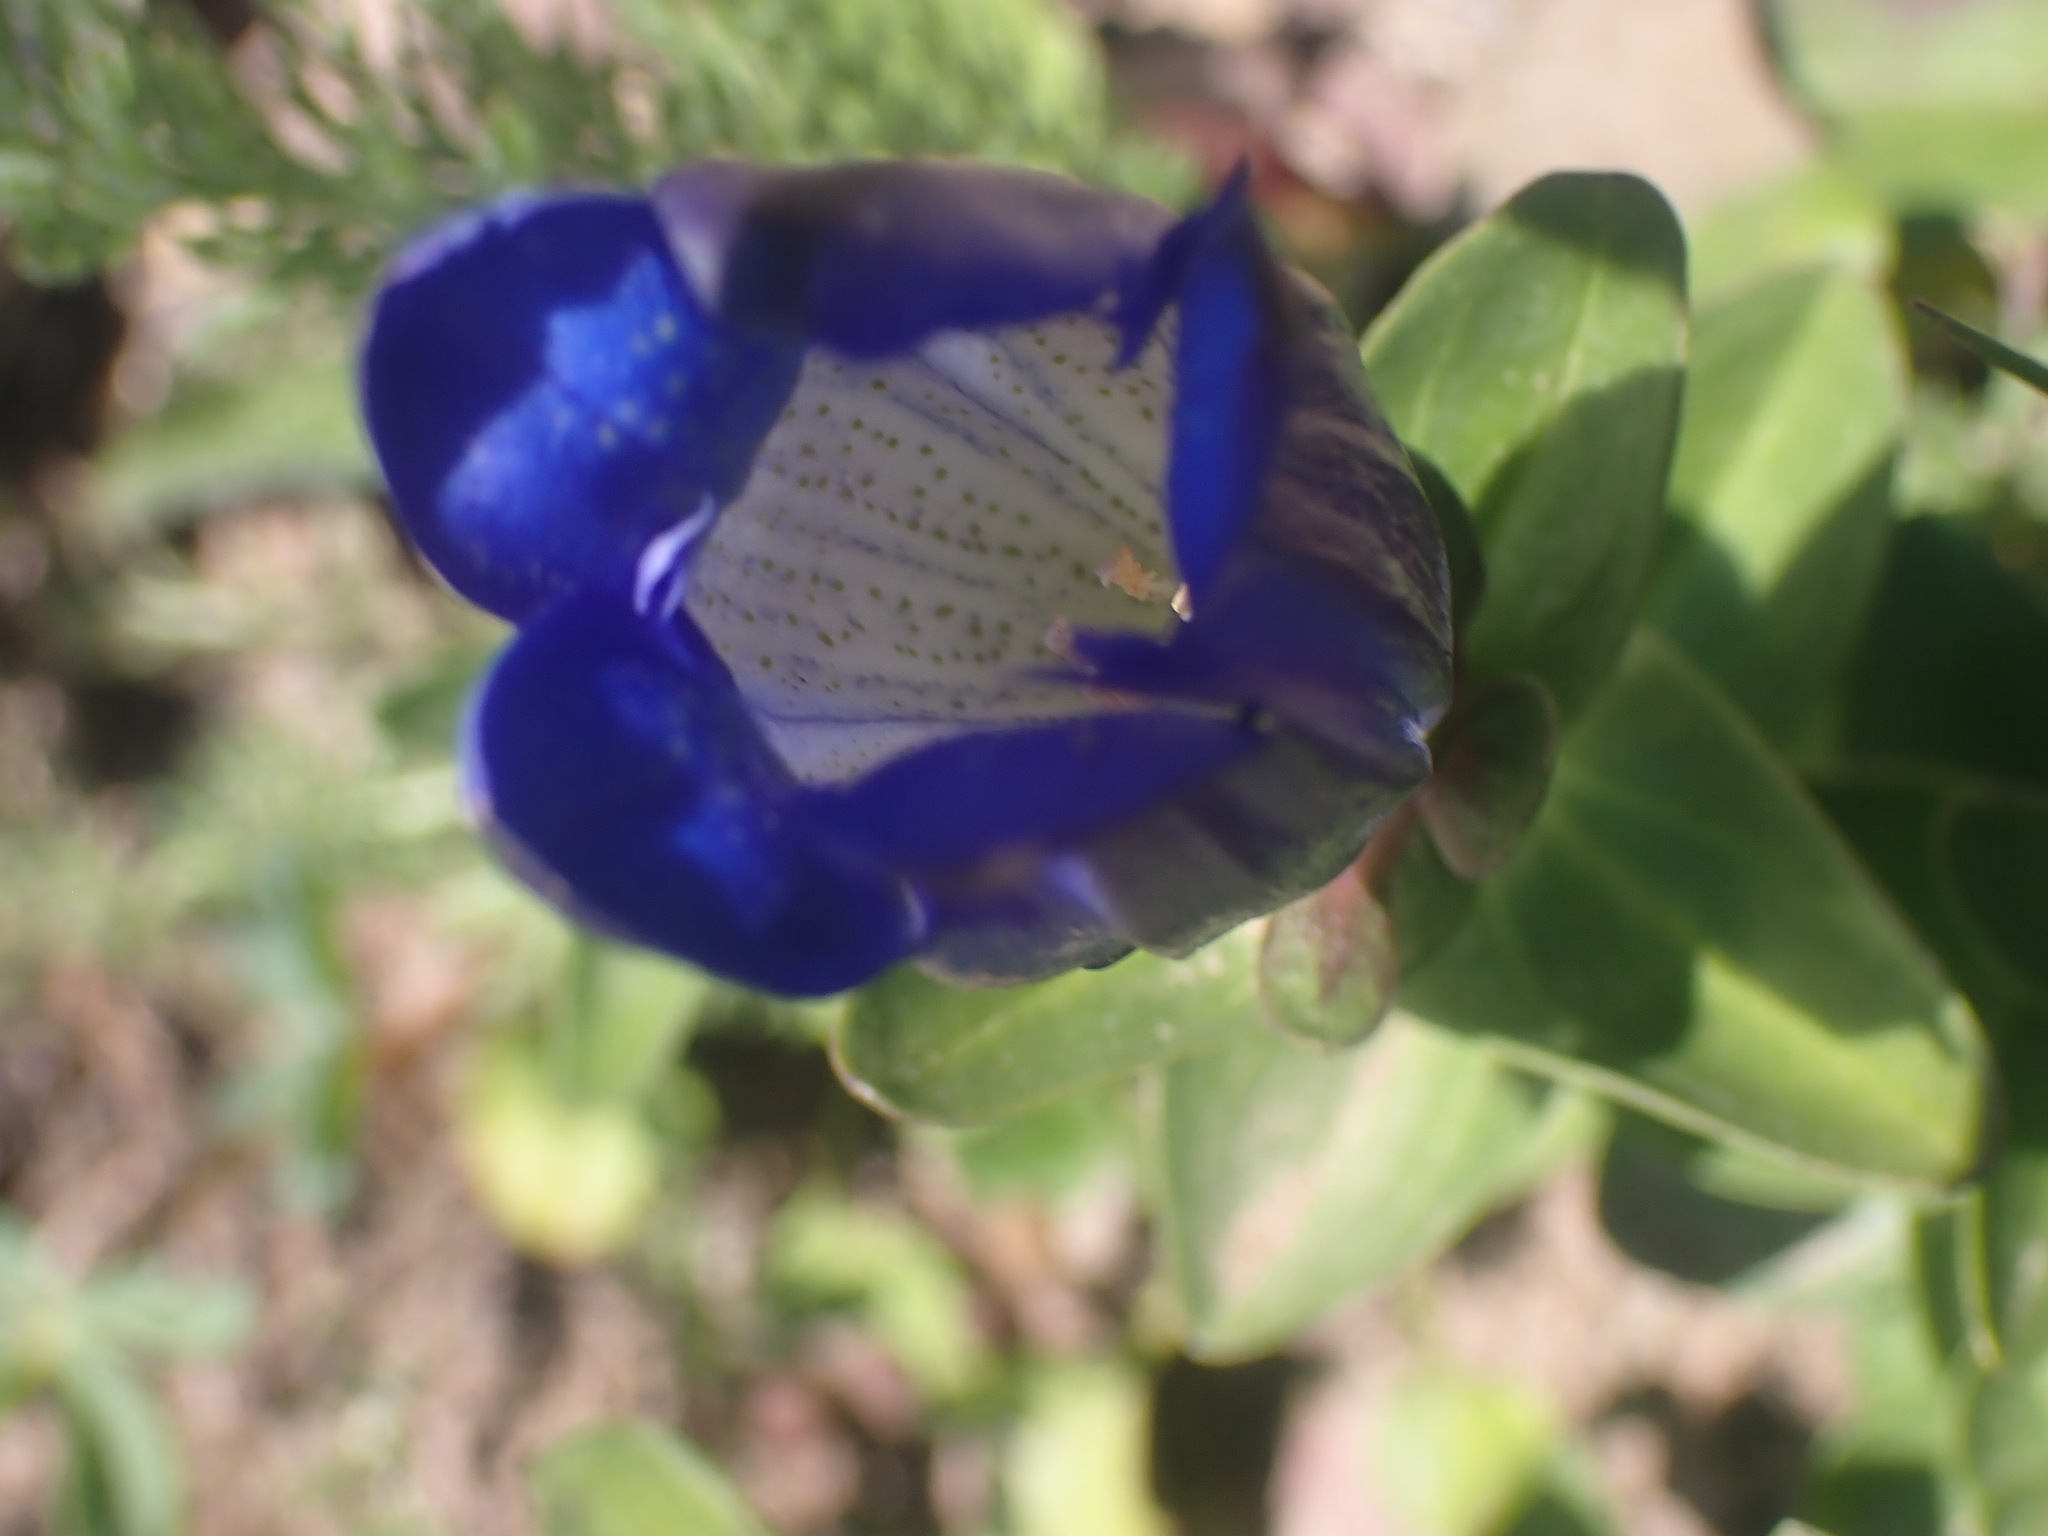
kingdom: Plantae
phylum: Tracheophyta
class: Magnoliopsida
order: Gentianales
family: Gentianaceae
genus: Gentiana
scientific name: Gentiana calycosa
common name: Rainier pleated gentian
